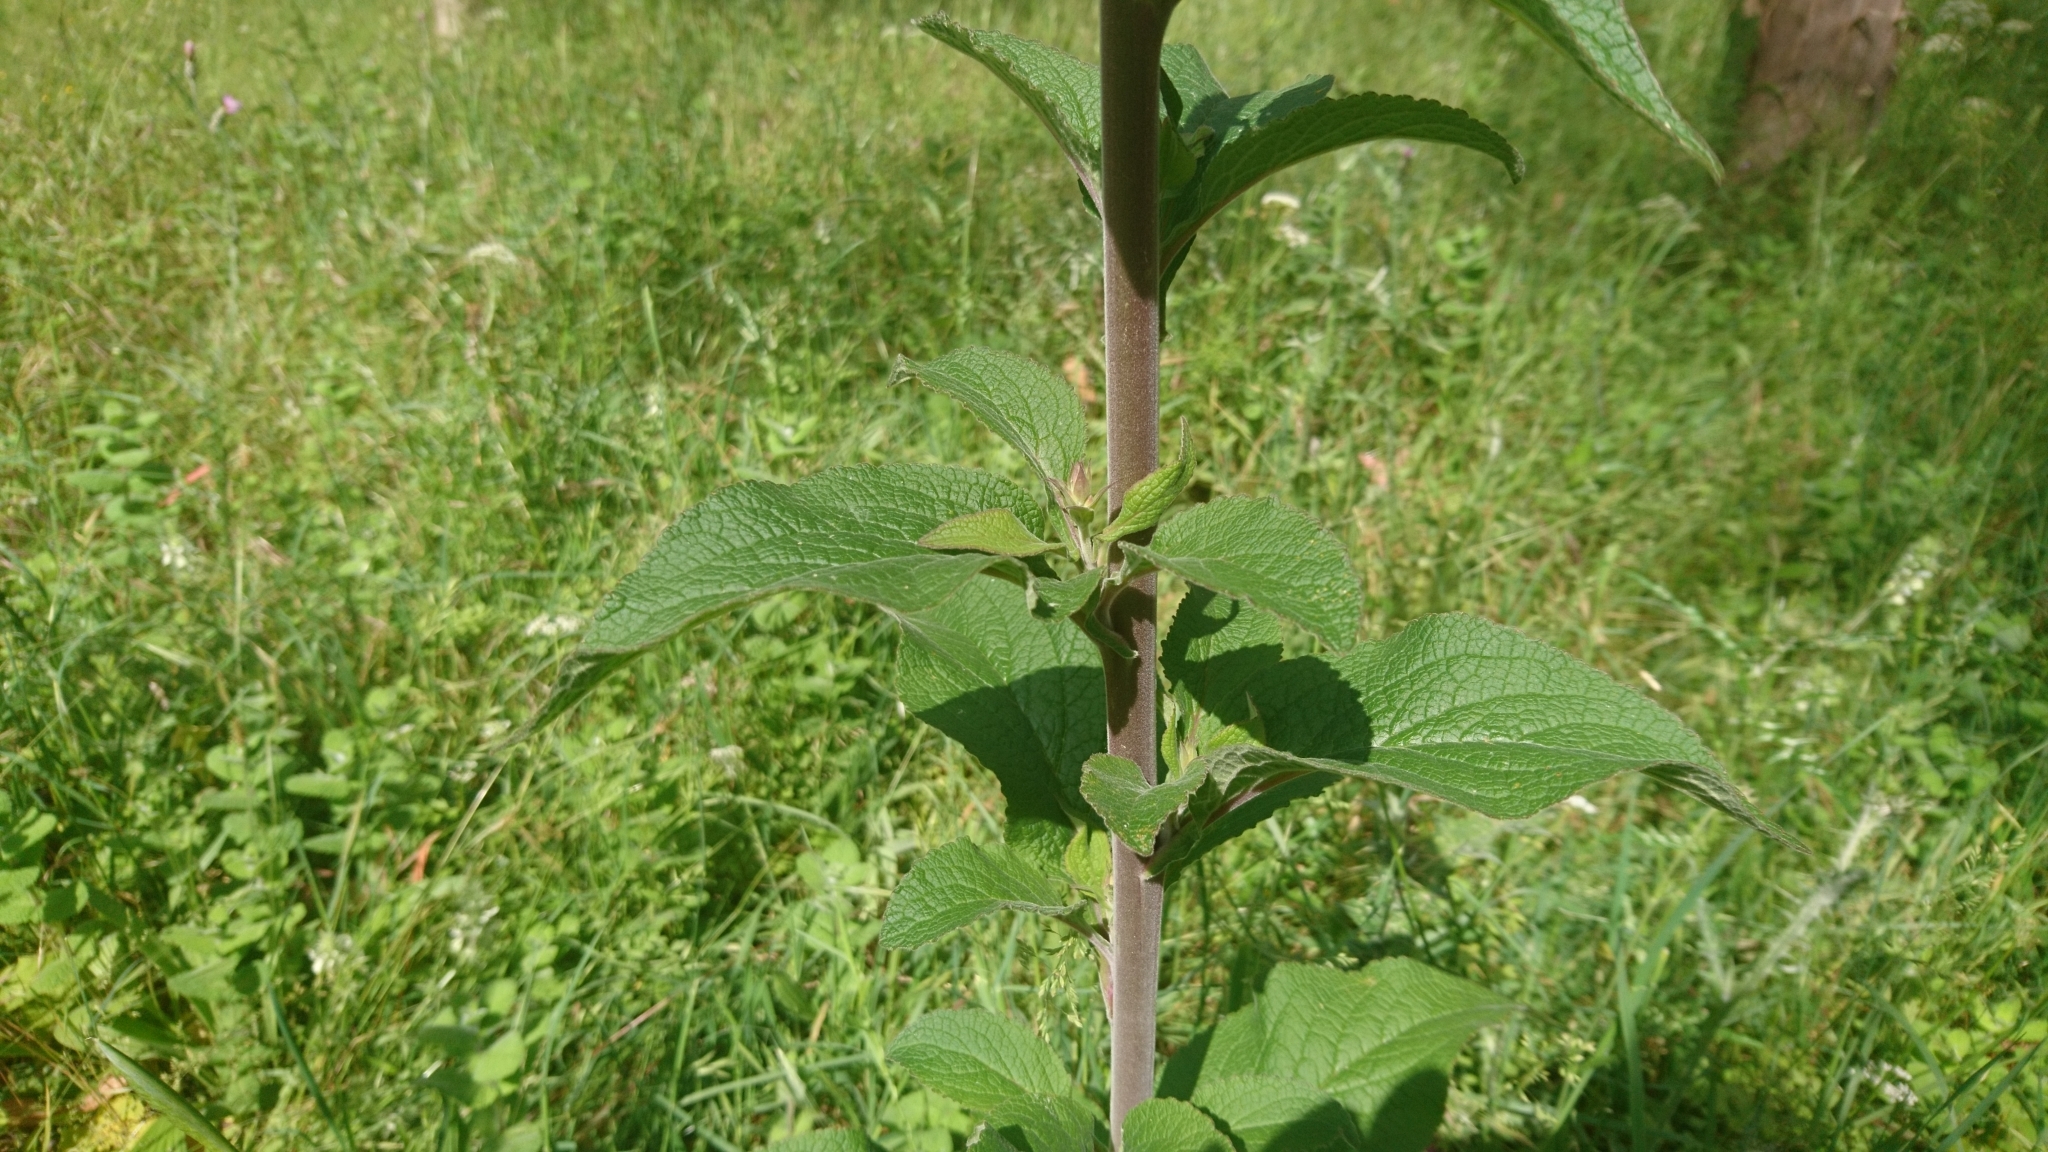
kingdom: Plantae
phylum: Tracheophyta
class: Magnoliopsida
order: Lamiales
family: Plantaginaceae
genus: Digitalis
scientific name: Digitalis purpurea
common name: Foxglove
